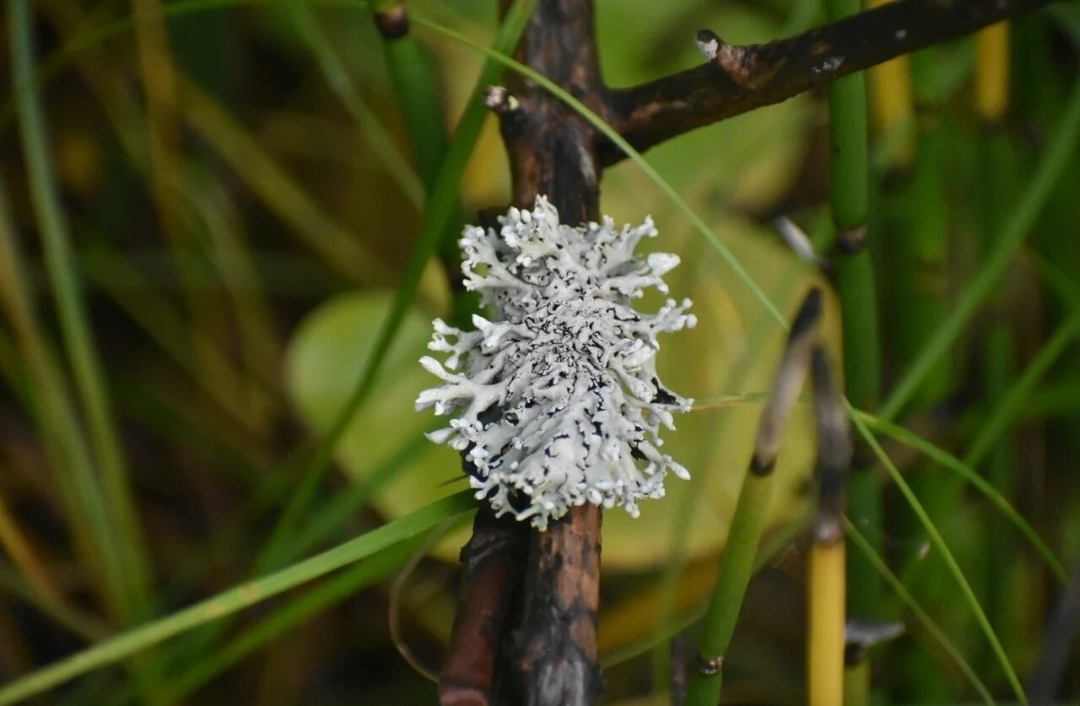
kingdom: Fungi
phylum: Ascomycota
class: Lecanoromycetes
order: Lecanorales
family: Parmeliaceae
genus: Hypogymnia
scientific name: Hypogymnia physodes
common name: Dark crottle
